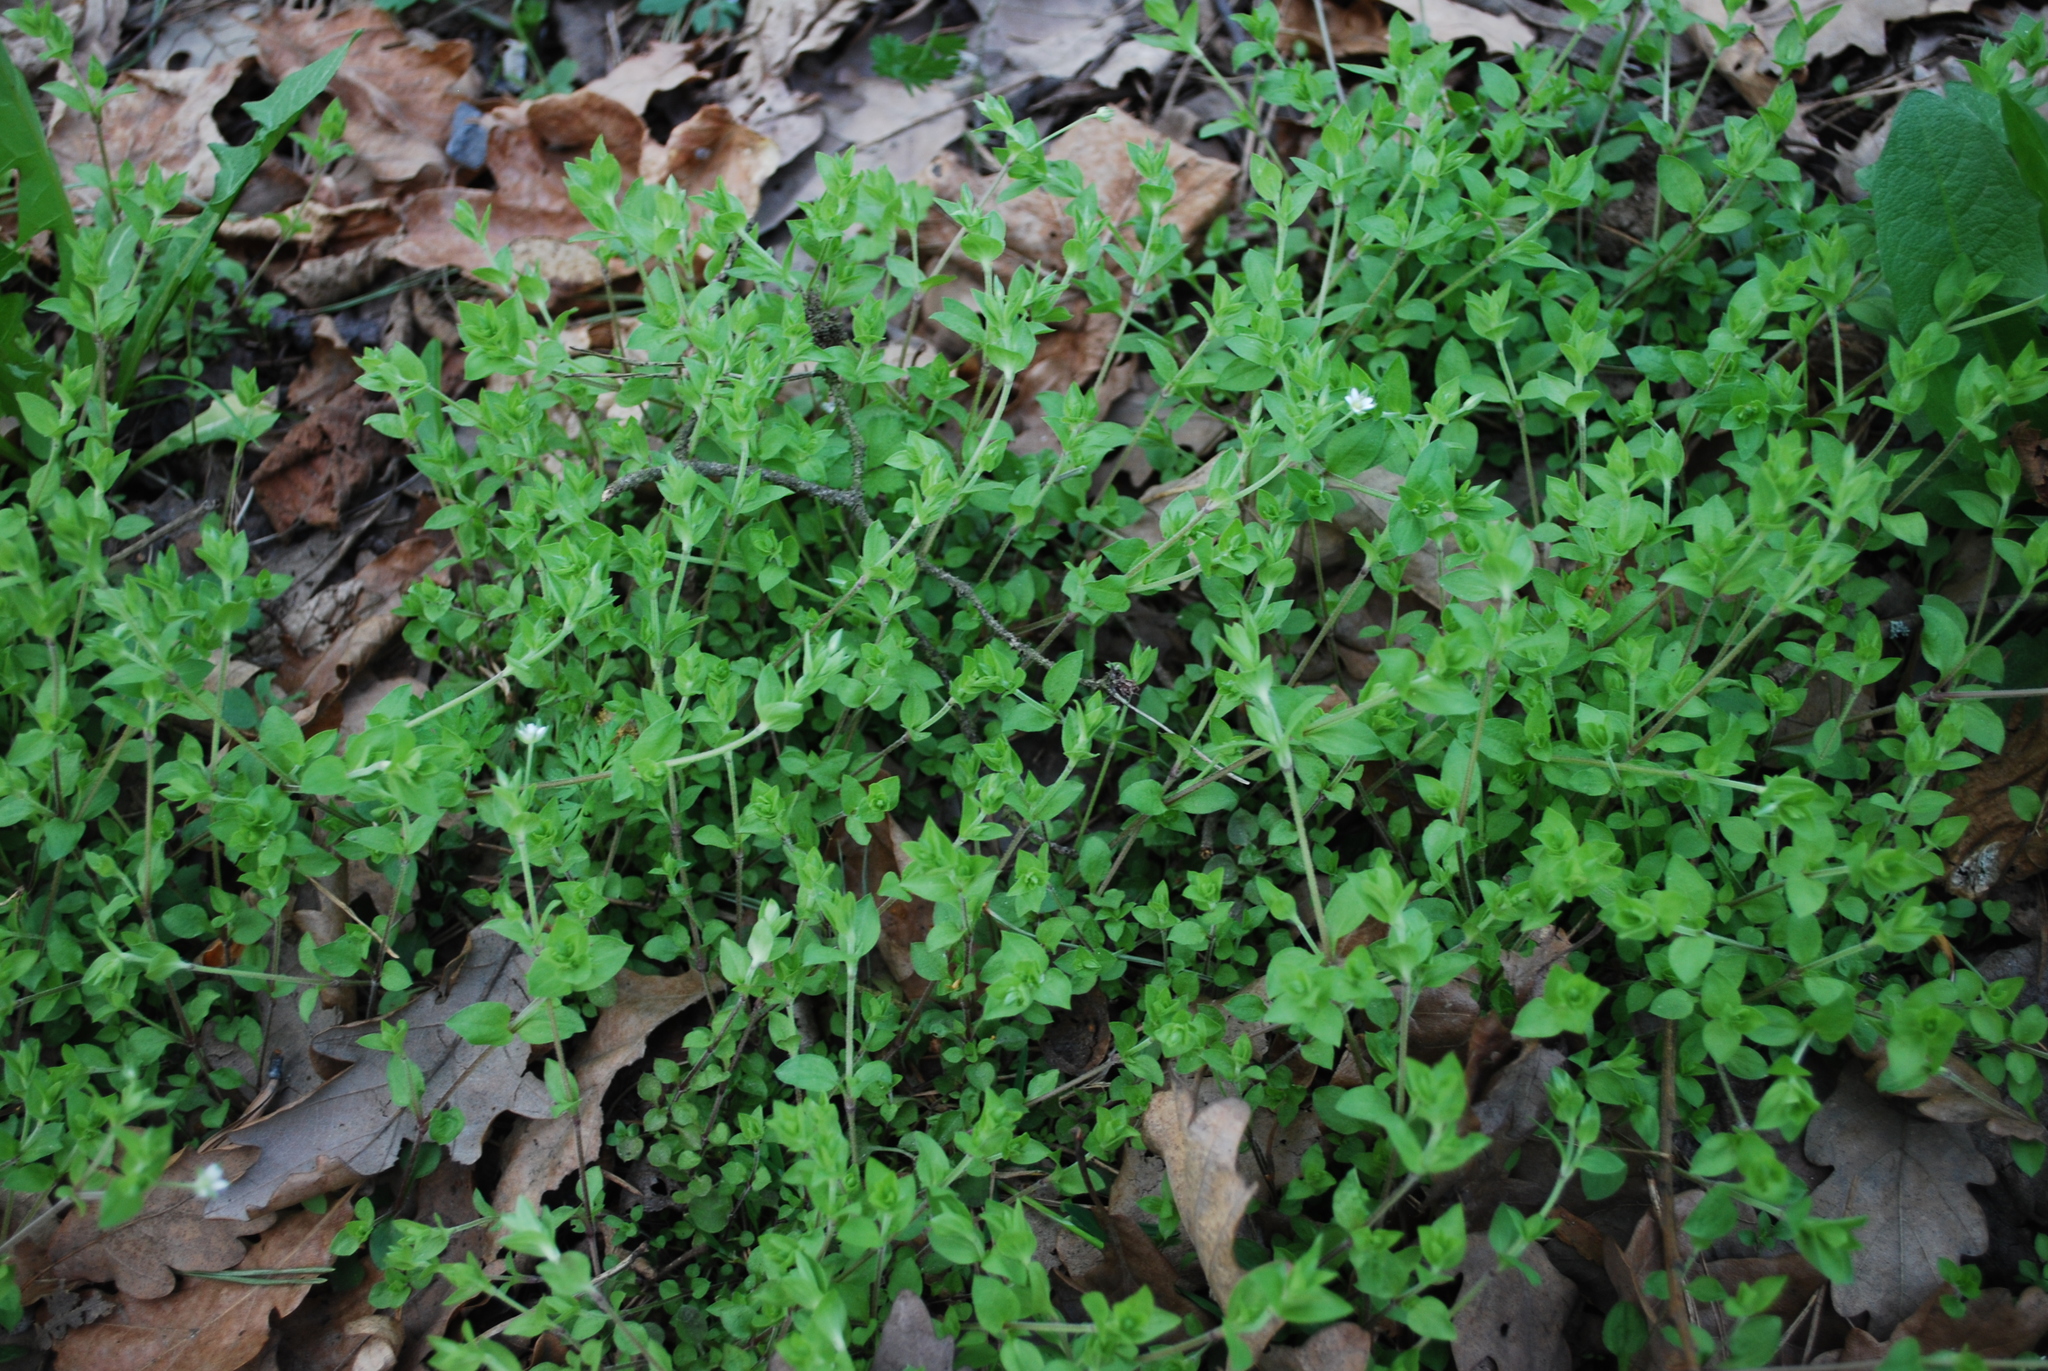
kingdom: Plantae
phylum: Tracheophyta
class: Magnoliopsida
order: Caryophyllales
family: Caryophyllaceae
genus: Moehringia
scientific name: Moehringia trinervia
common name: Three-nerved sandwort
